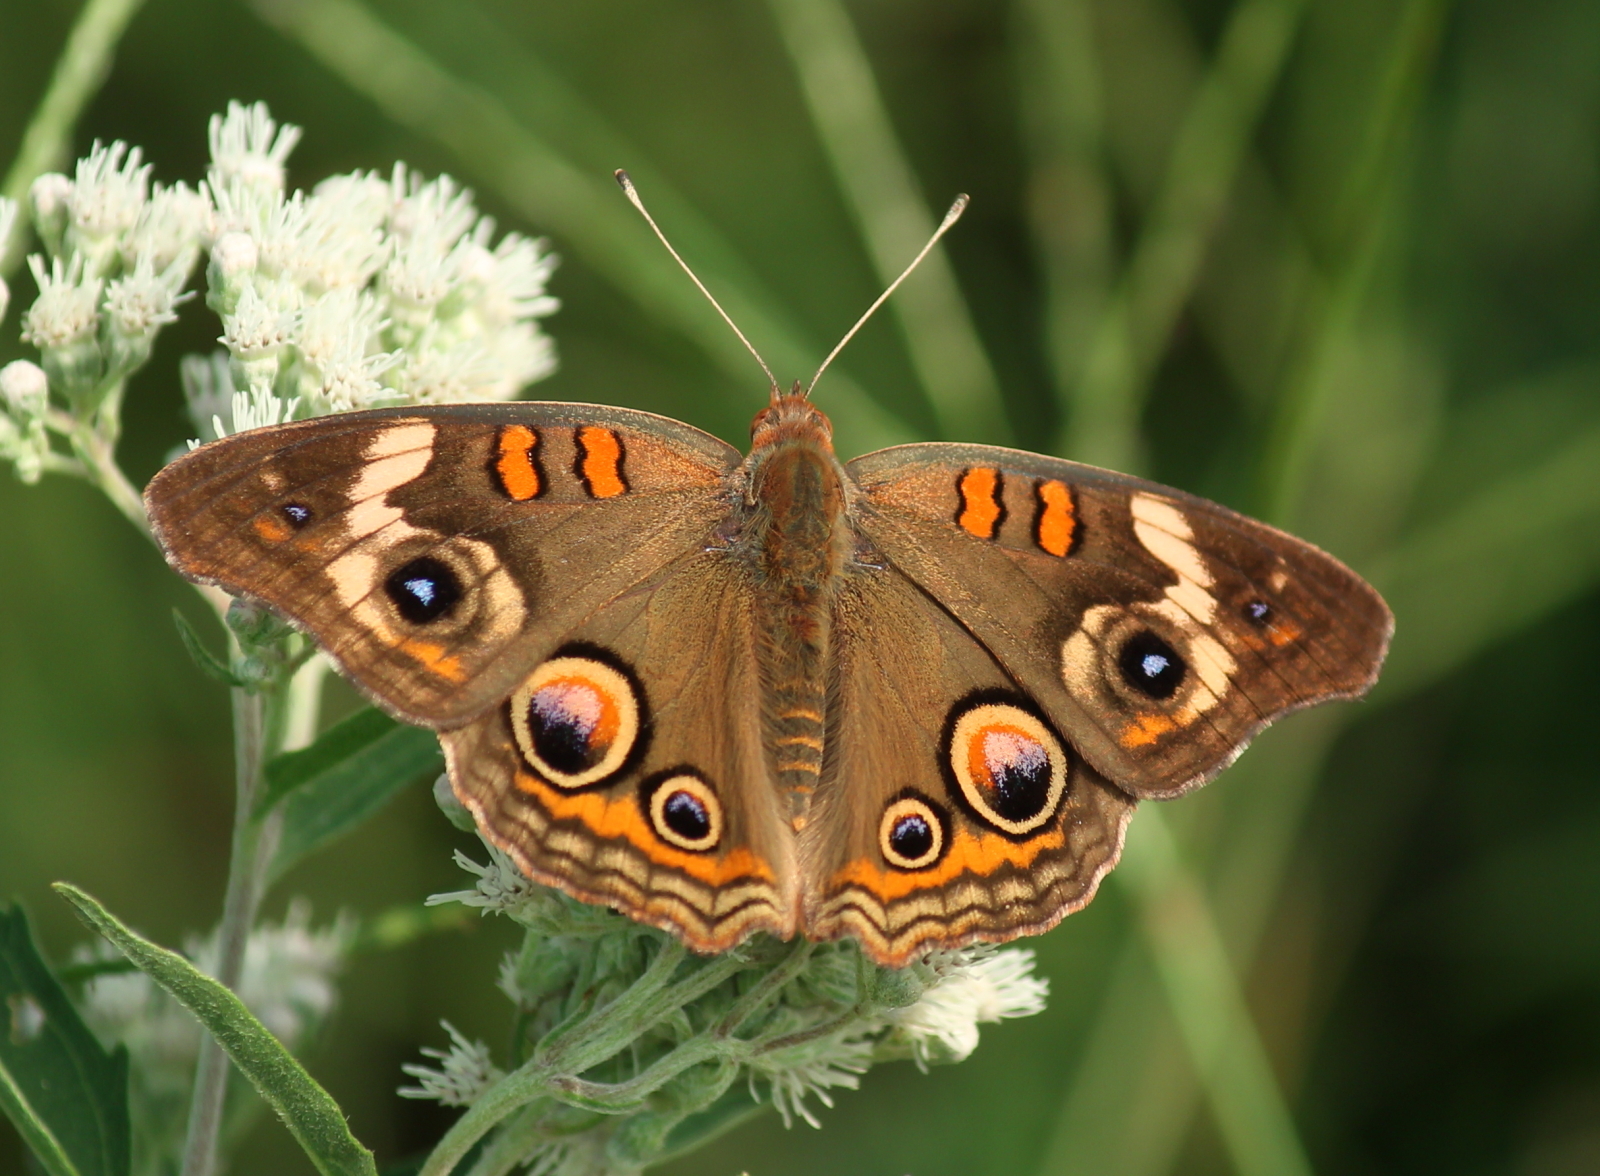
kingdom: Animalia
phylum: Arthropoda
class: Insecta
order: Lepidoptera
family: Nymphalidae
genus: Junonia
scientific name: Junonia coenia
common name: Common buckeye
